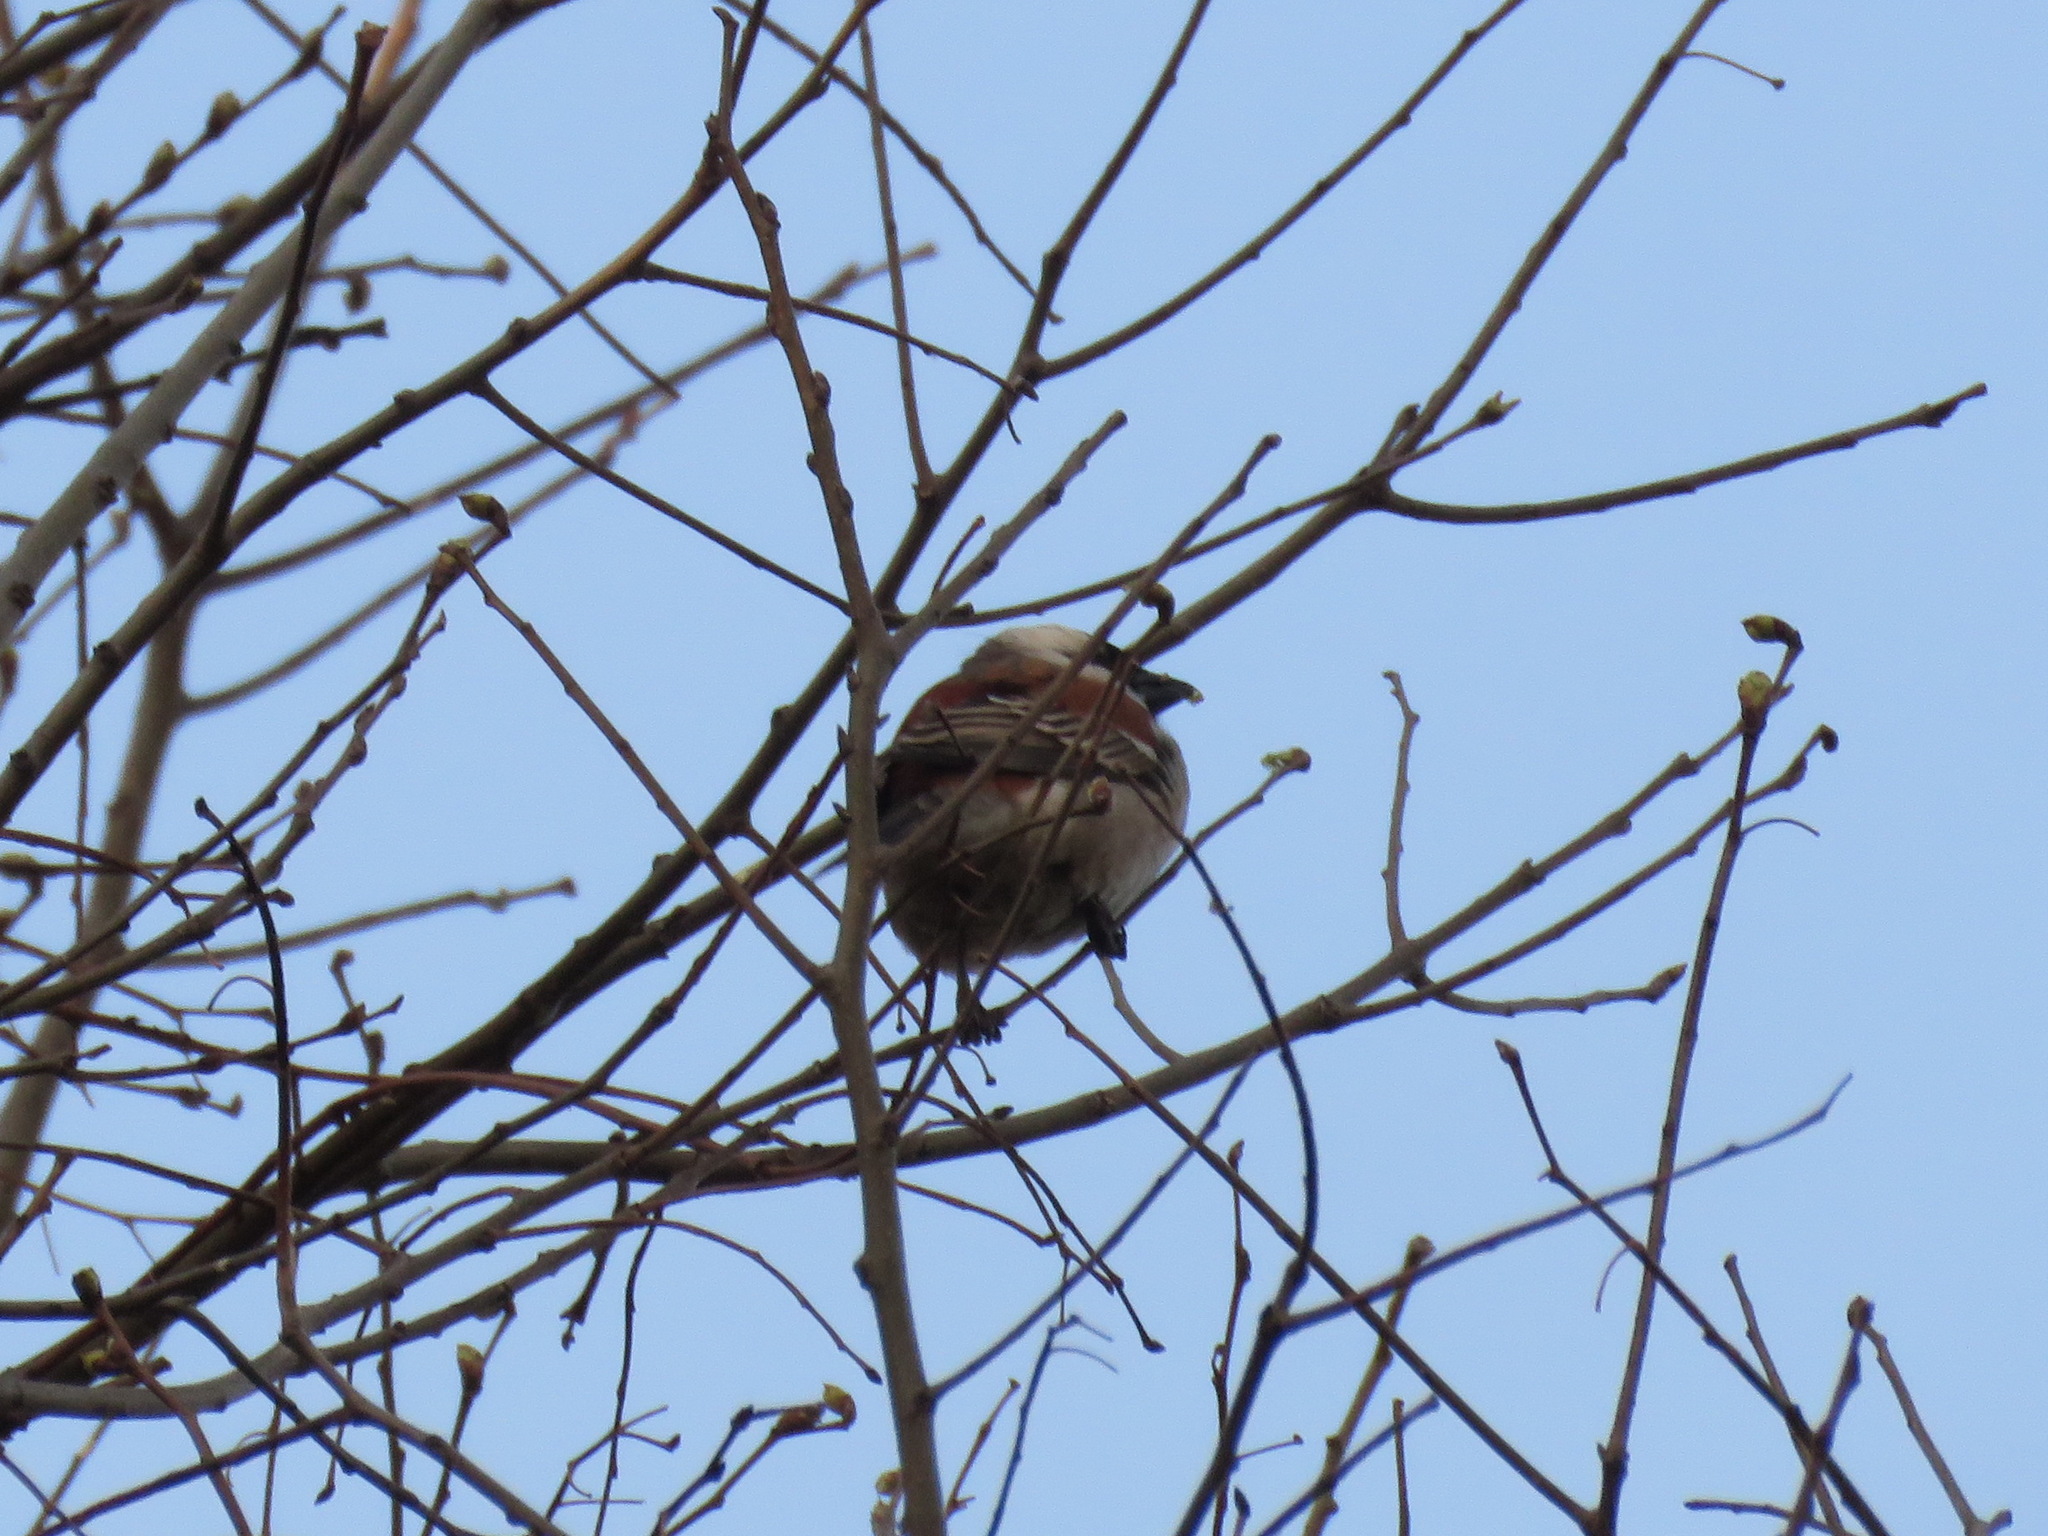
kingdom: Animalia
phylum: Chordata
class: Aves
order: Passeriformes
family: Passeridae
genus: Passer
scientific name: Passer melanurus
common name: Cape sparrow
